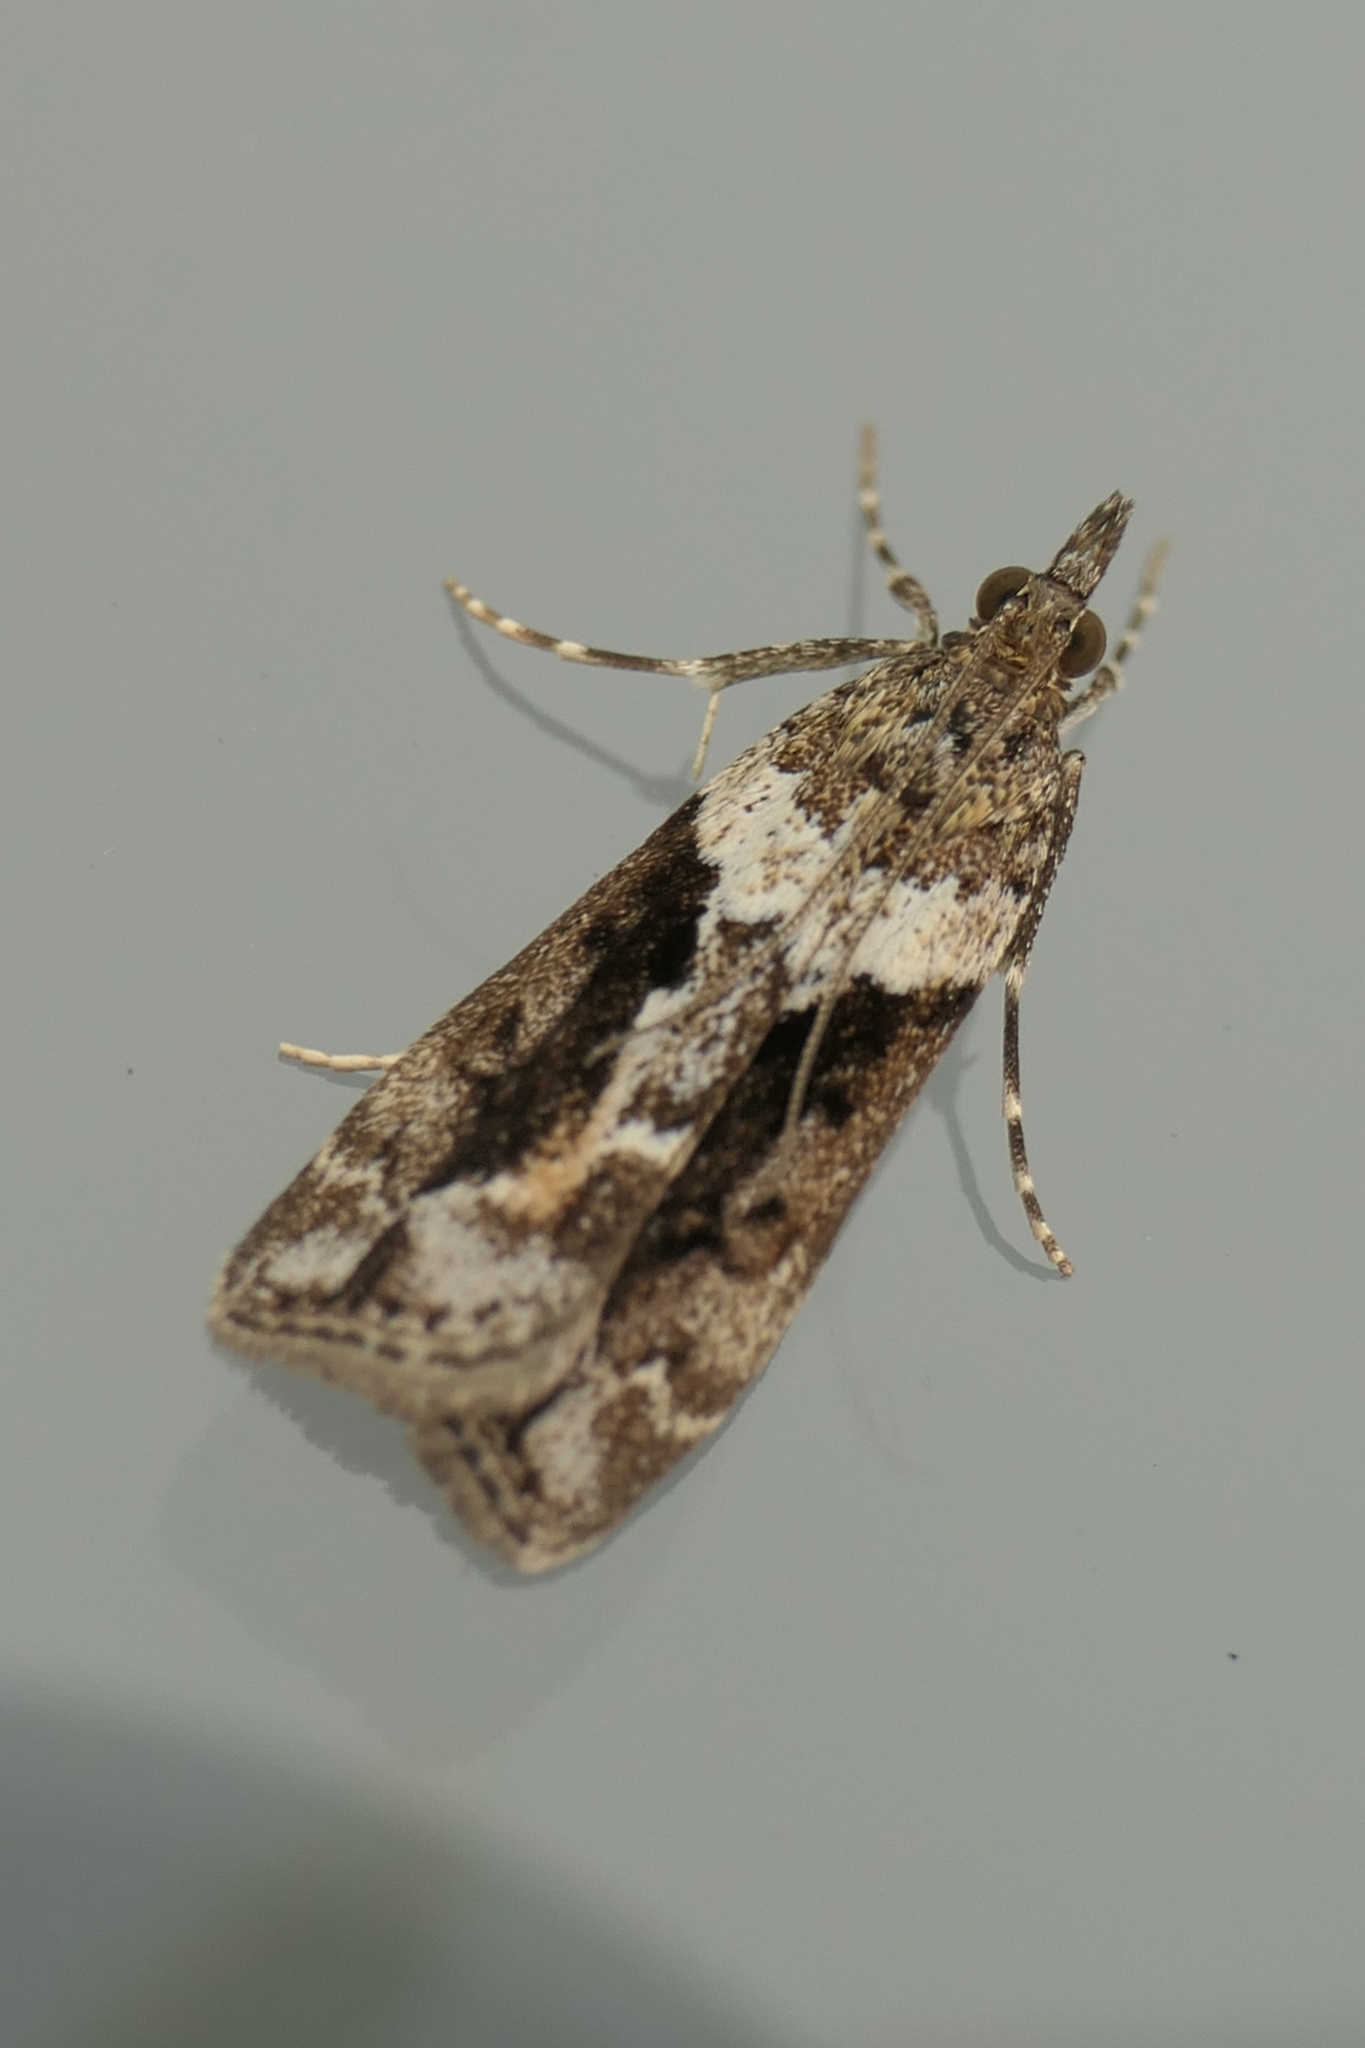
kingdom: Animalia
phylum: Arthropoda
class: Insecta
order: Lepidoptera
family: Crambidae
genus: Eudonia
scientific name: Eudonia submarginalis
